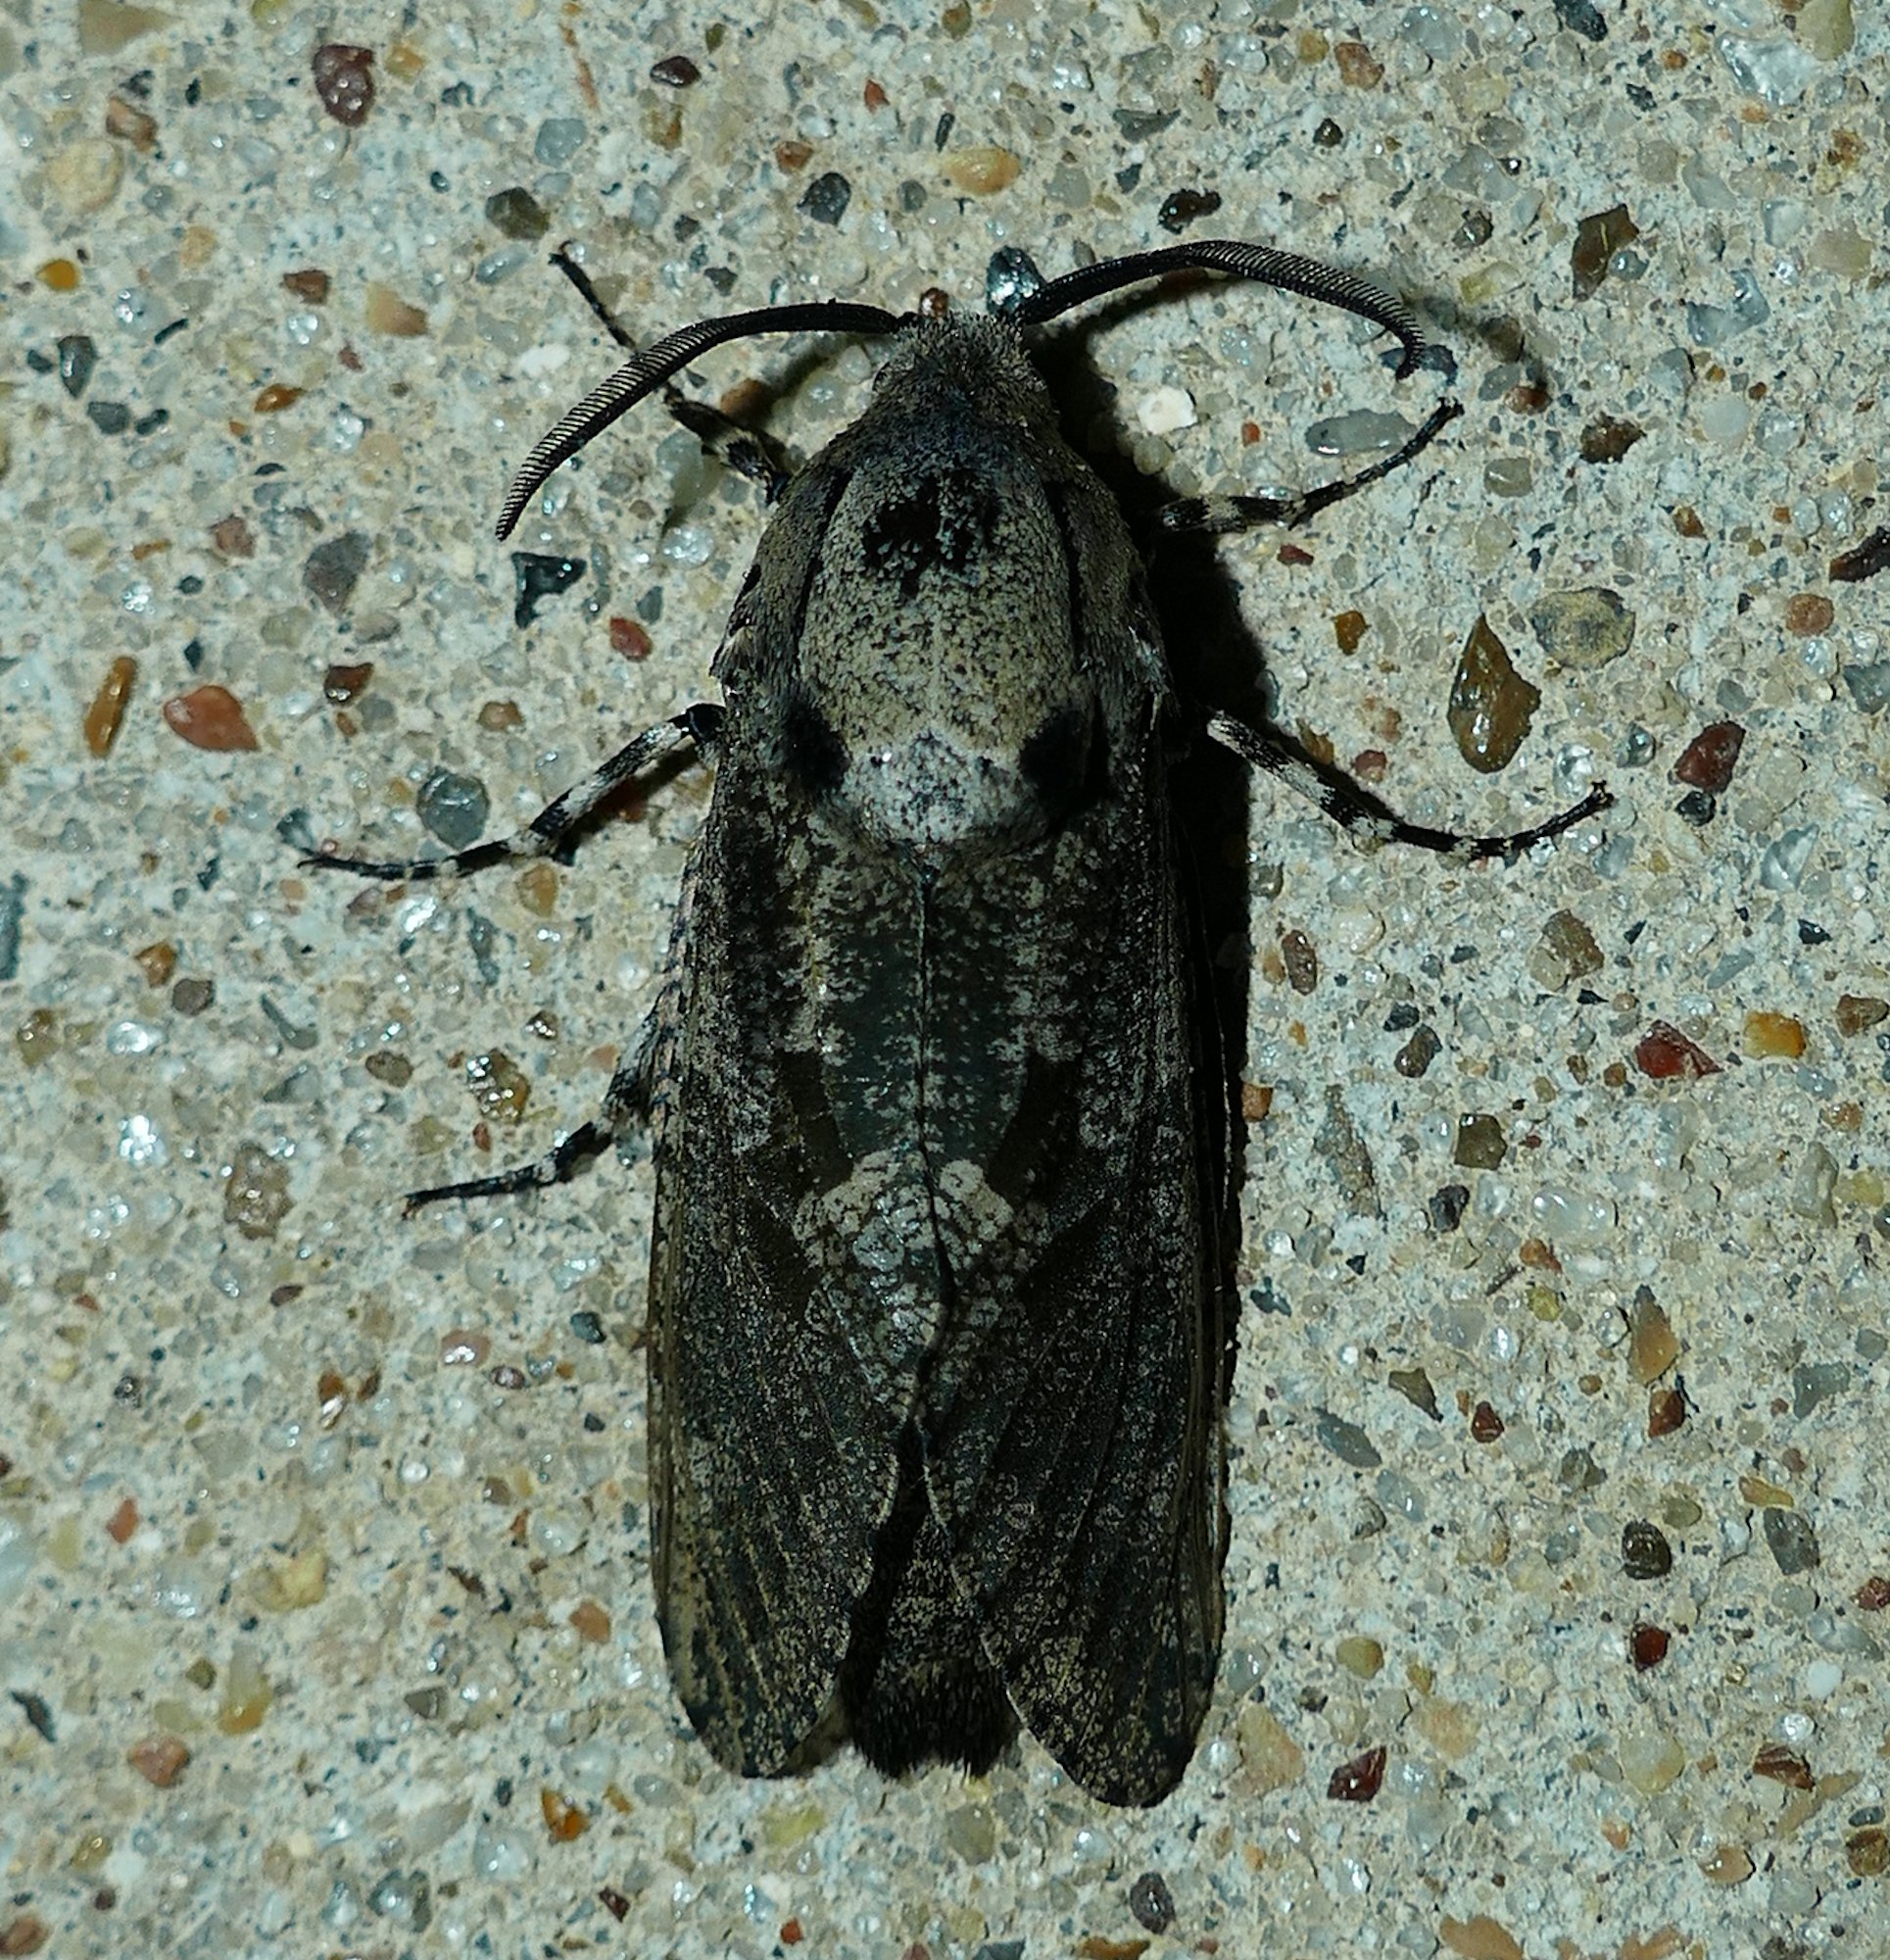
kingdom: Animalia
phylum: Arthropoda
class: Insecta
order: Lepidoptera
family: Cossidae
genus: Prionoxystus
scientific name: Prionoxystus robiniae
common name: Carpenterworm
